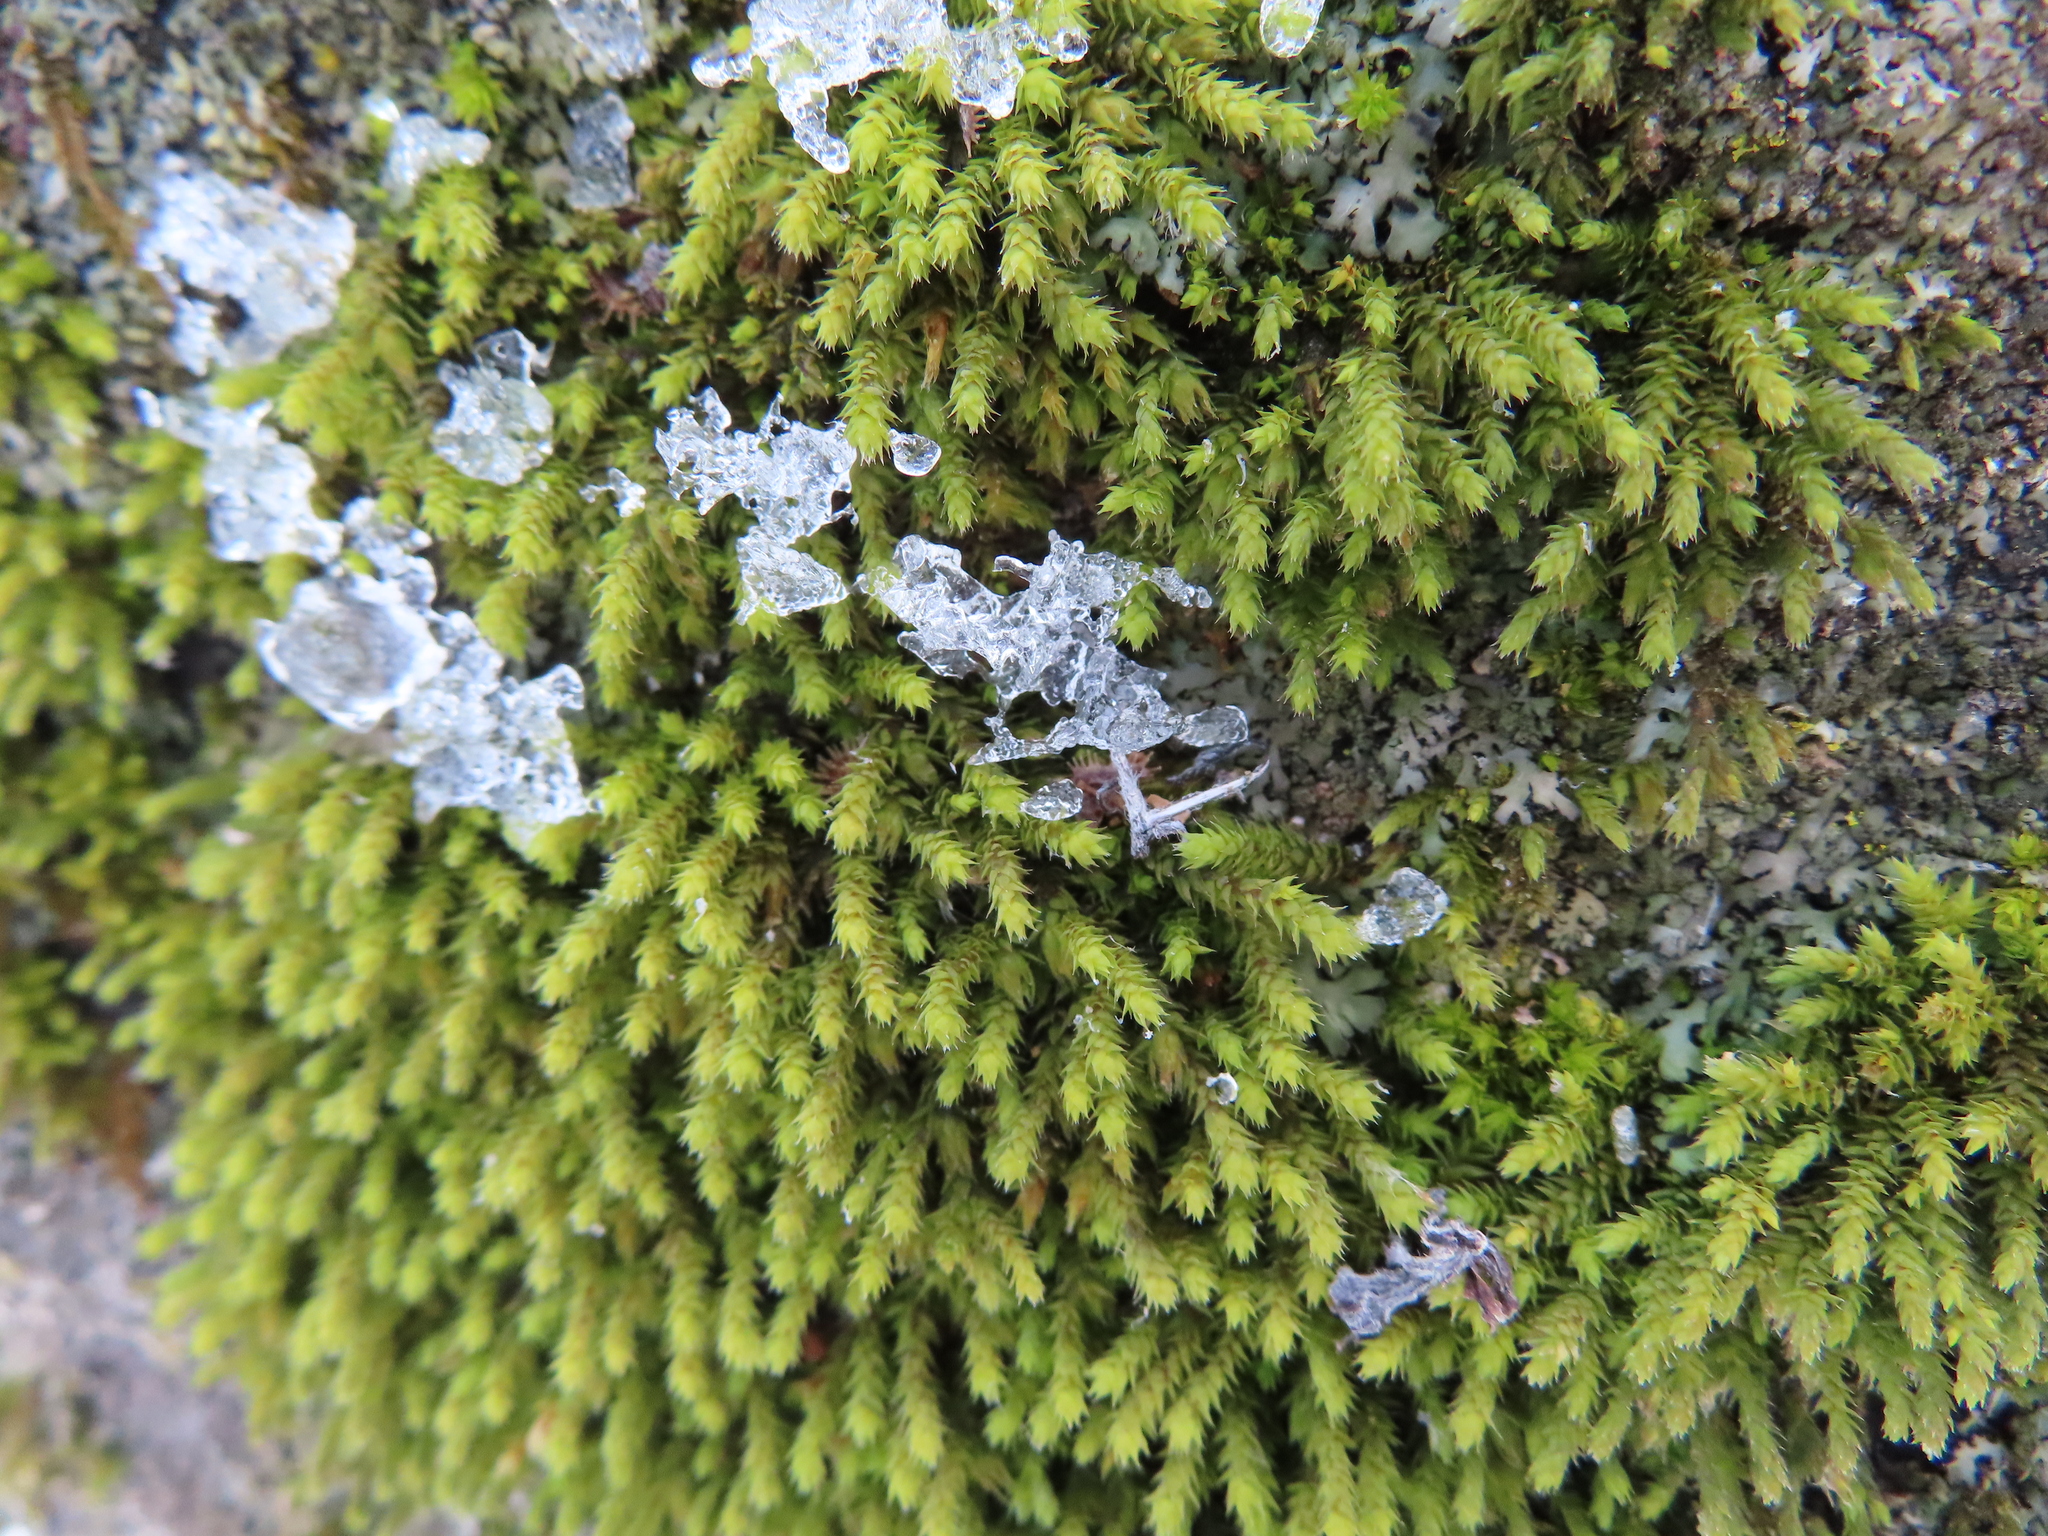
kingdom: Plantae
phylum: Bryophyta
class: Bryopsida
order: Hedwigiales
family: Hedwigiaceae
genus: Hedwigia
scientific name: Hedwigia ciliata
